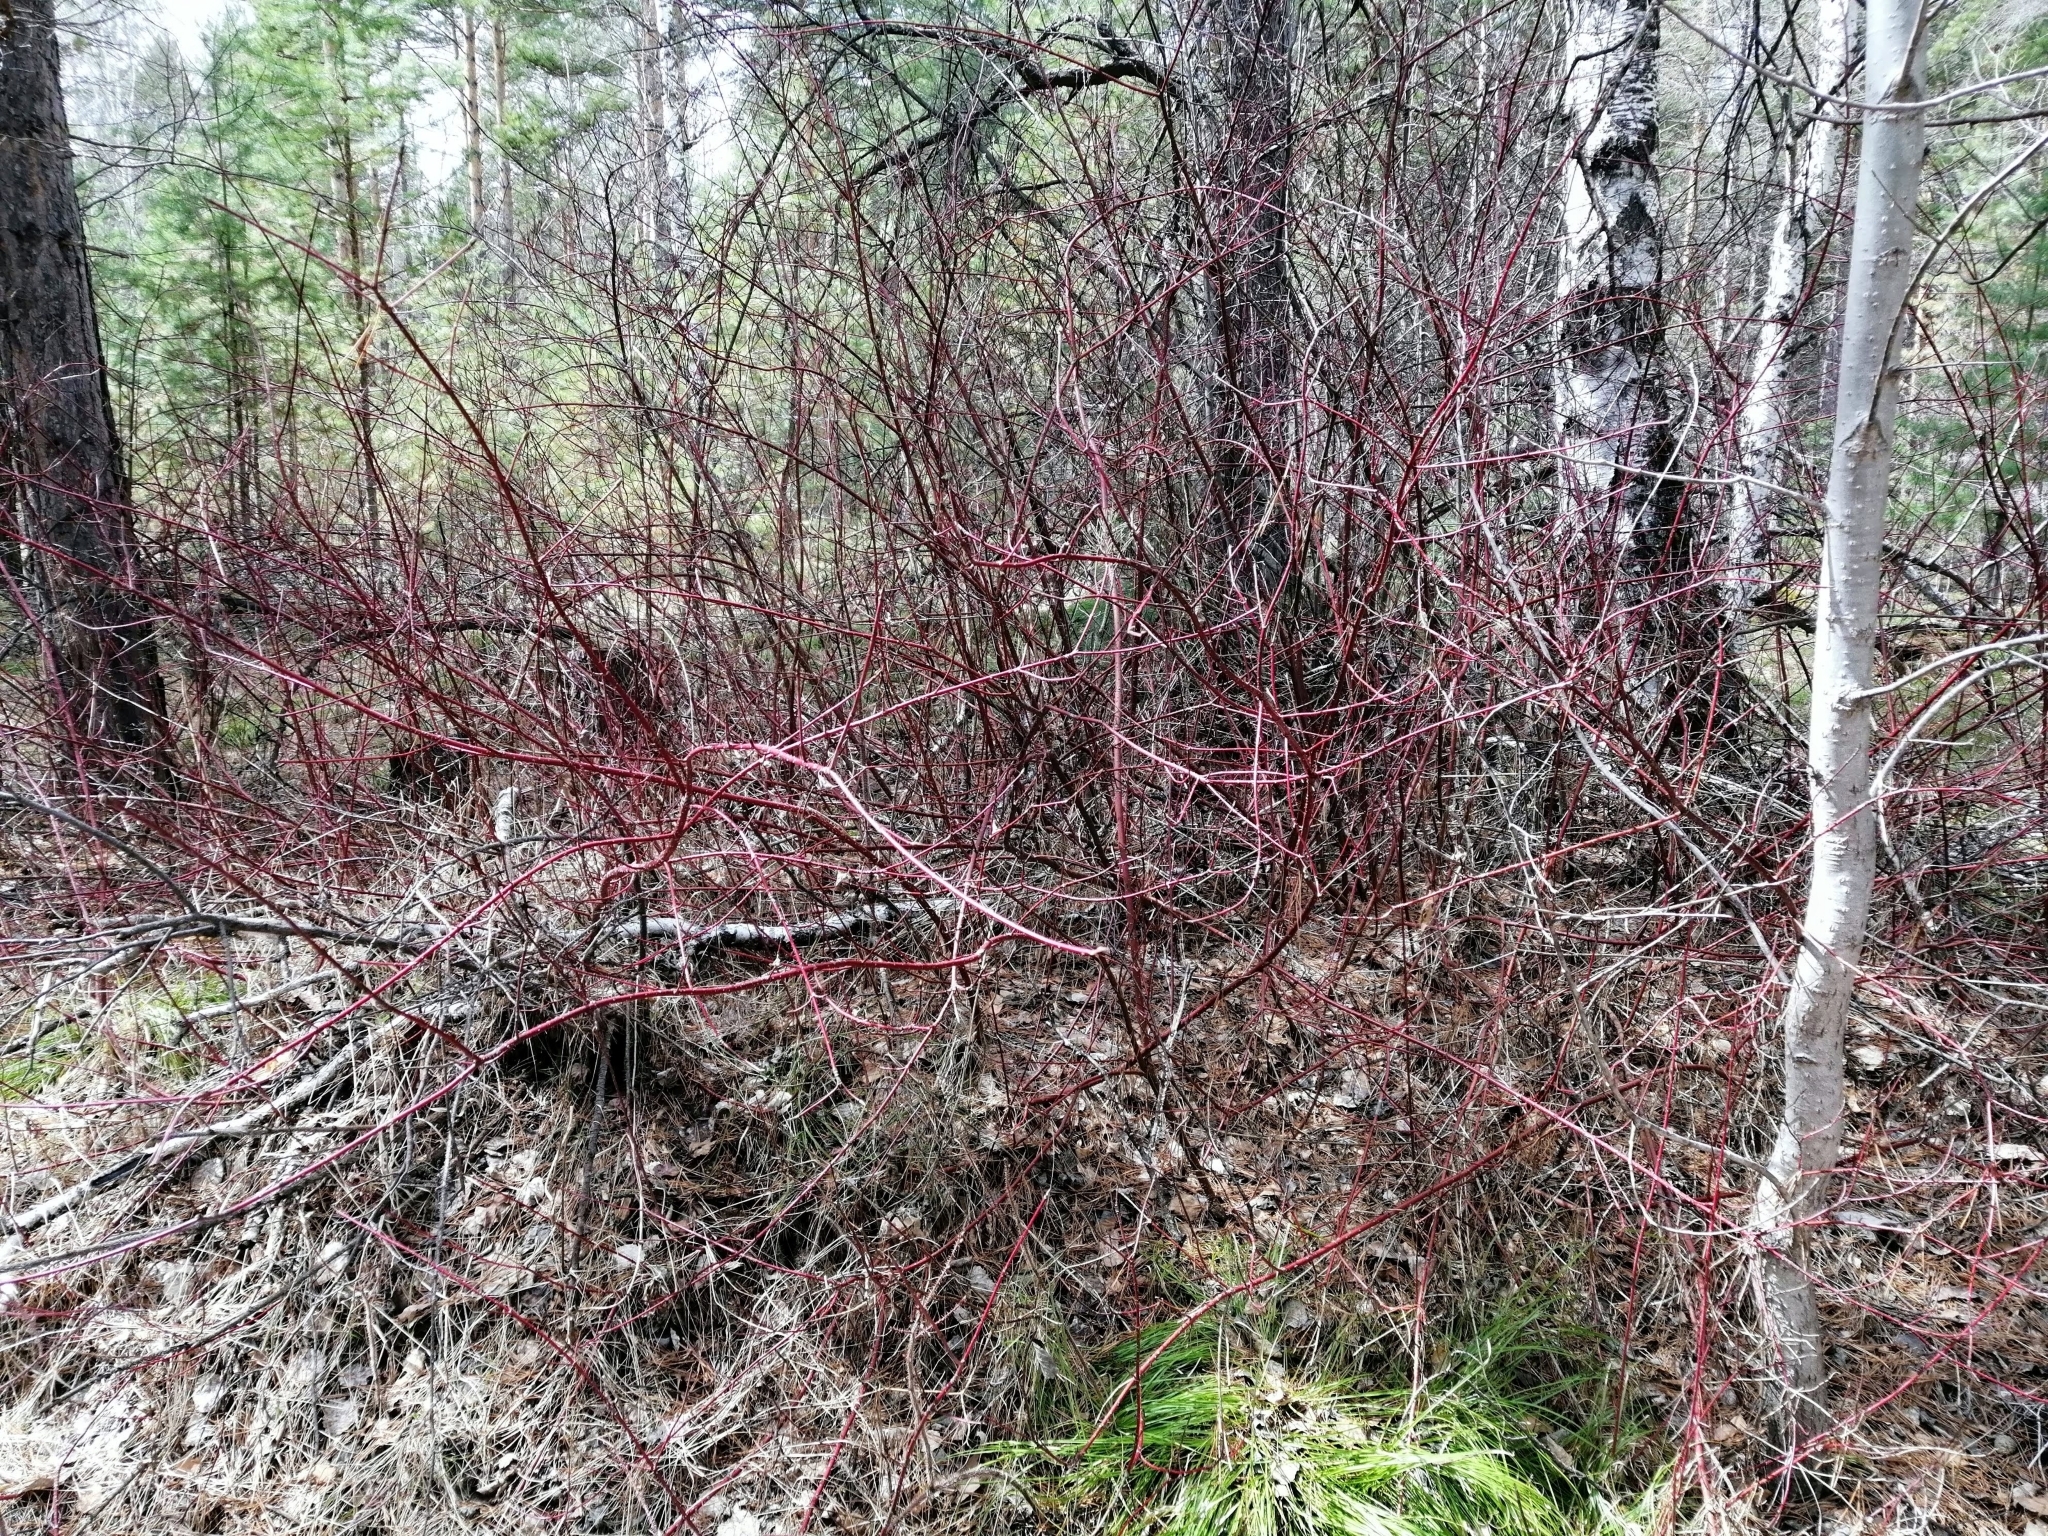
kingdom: Plantae
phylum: Tracheophyta
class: Magnoliopsida
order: Cornales
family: Cornaceae
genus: Cornus
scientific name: Cornus alba
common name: White dogwood
